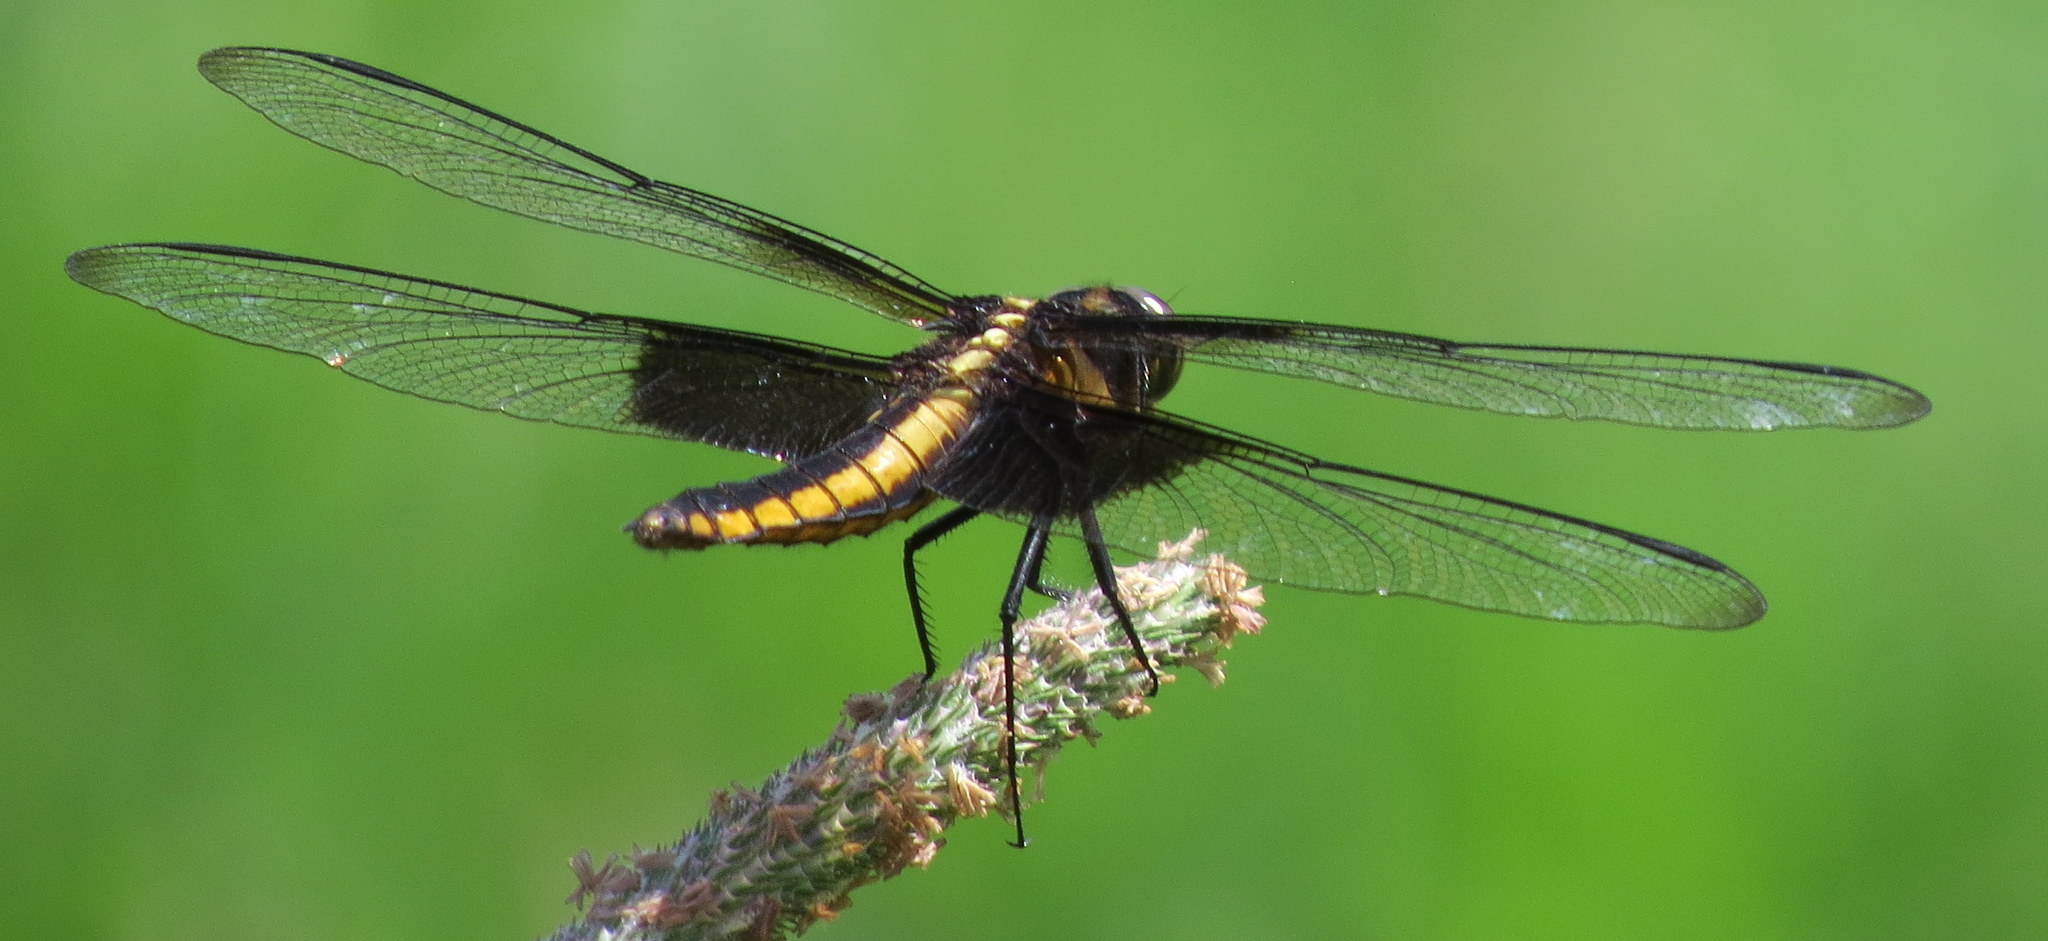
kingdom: Animalia
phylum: Arthropoda
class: Insecta
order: Odonata
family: Libellulidae
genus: Libellula
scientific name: Libellula luctuosa
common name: Widow skimmer
